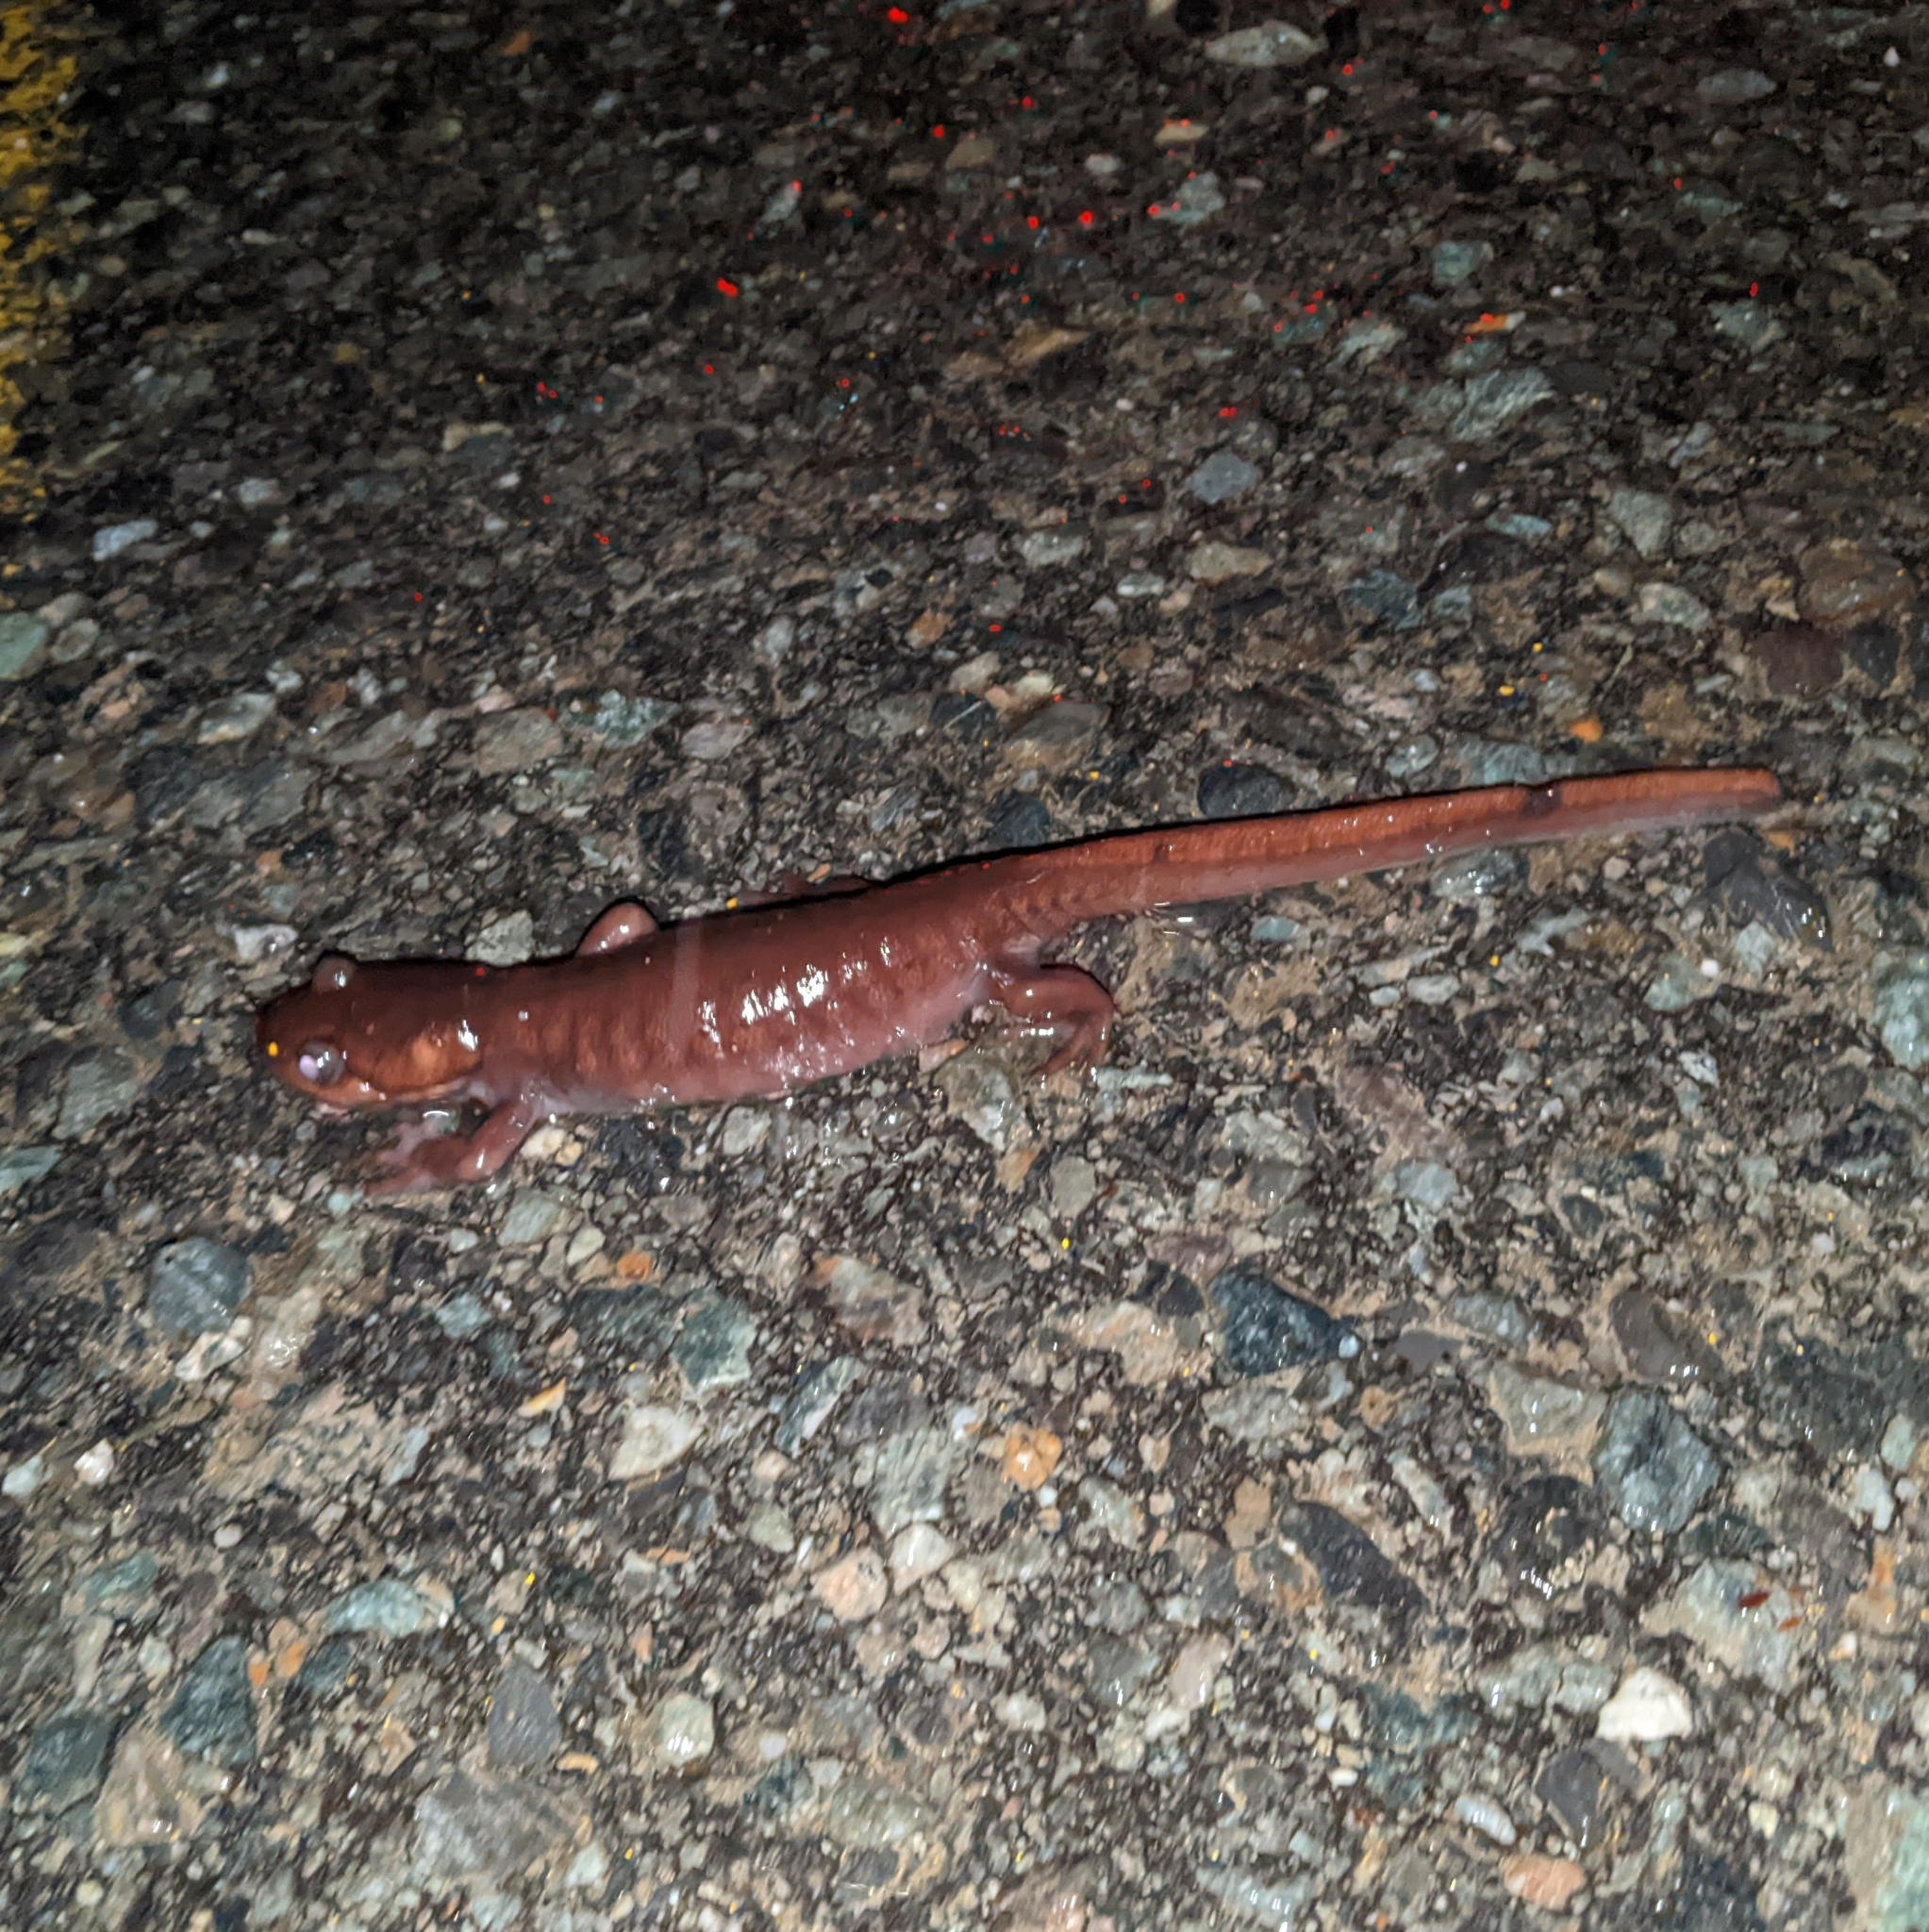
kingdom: Animalia
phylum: Chordata
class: Amphibia
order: Caudata
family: Ambystomatidae
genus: Ambystoma
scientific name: Ambystoma gracile
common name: Northwestern salamander
